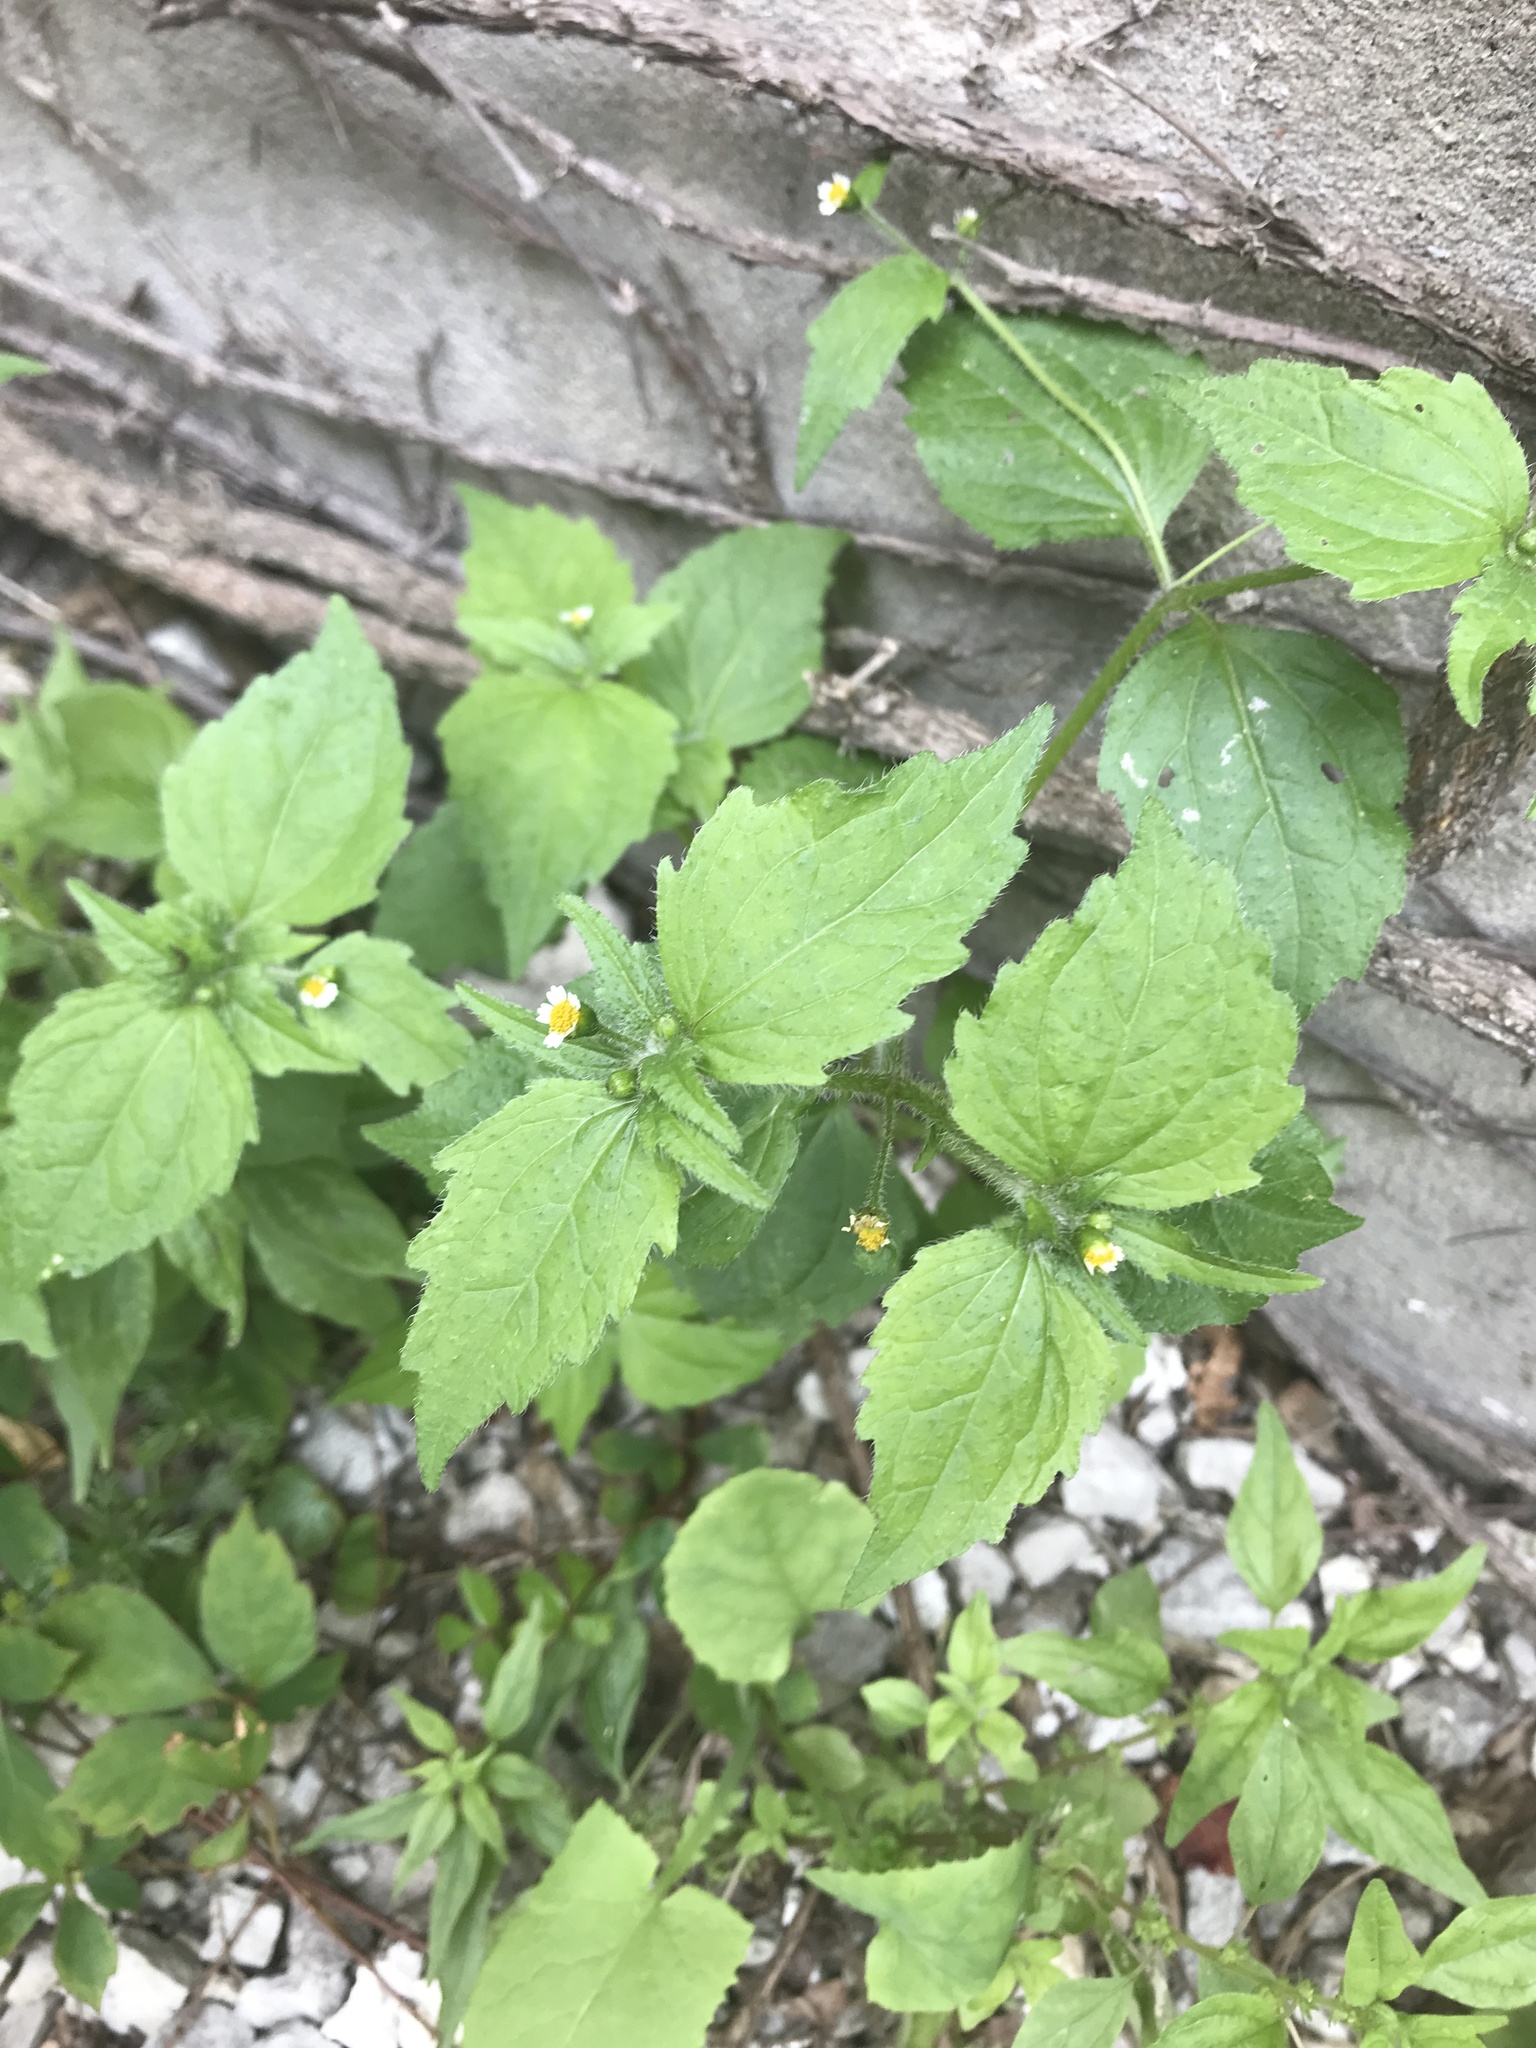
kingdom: Plantae
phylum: Tracheophyta
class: Magnoliopsida
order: Asterales
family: Asteraceae
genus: Galinsoga
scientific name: Galinsoga quadriradiata
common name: Shaggy soldier
